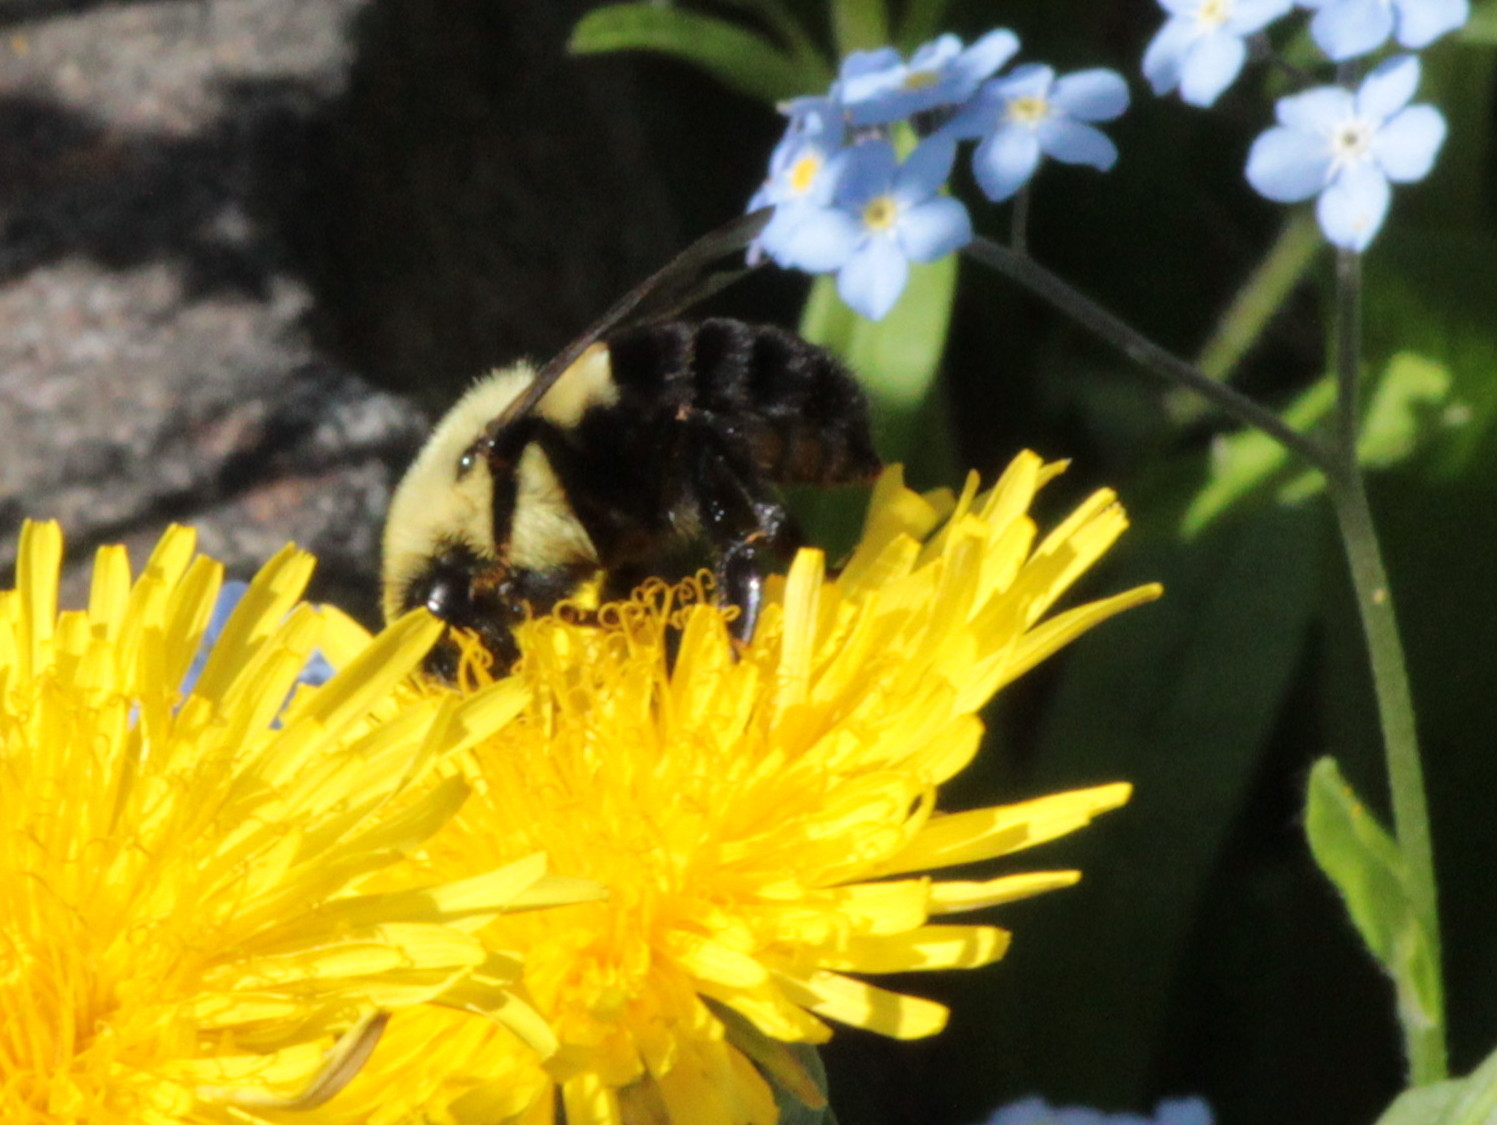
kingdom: Animalia
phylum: Arthropoda
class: Insecta
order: Hymenoptera
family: Apidae
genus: Bombus
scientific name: Bombus impatiens
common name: Common eastern bumble bee
